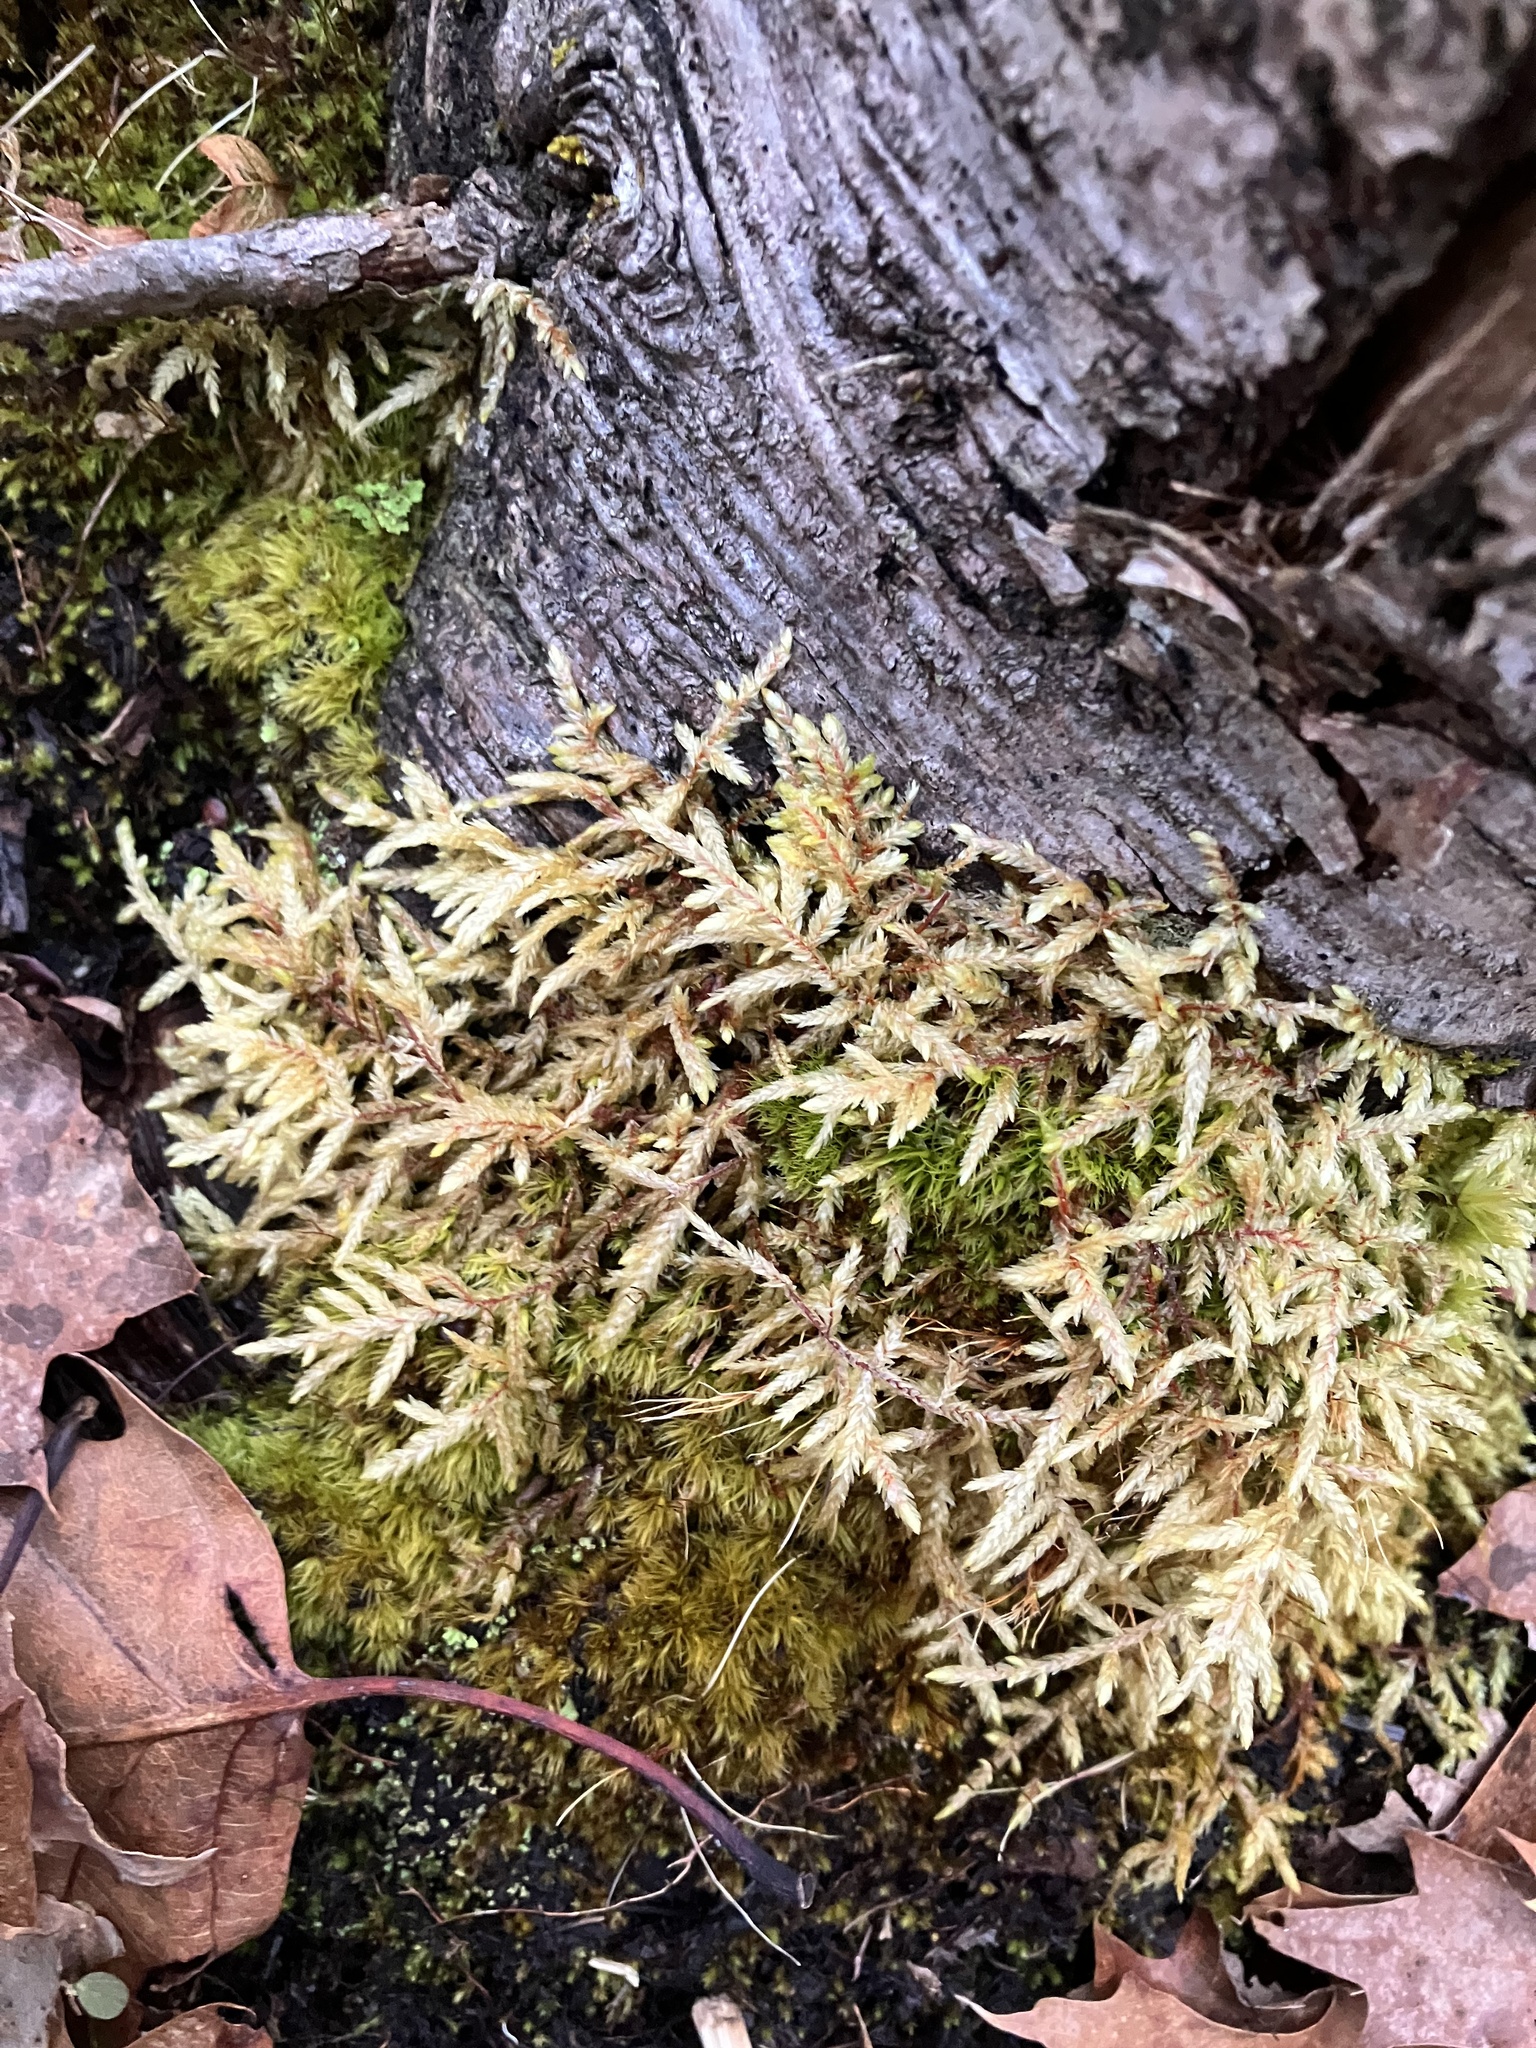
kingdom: Plantae
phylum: Bryophyta
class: Bryopsida
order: Hypnales
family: Hylocomiaceae
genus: Pleurozium
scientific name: Pleurozium schreberi
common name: Red-stemmed feather moss
